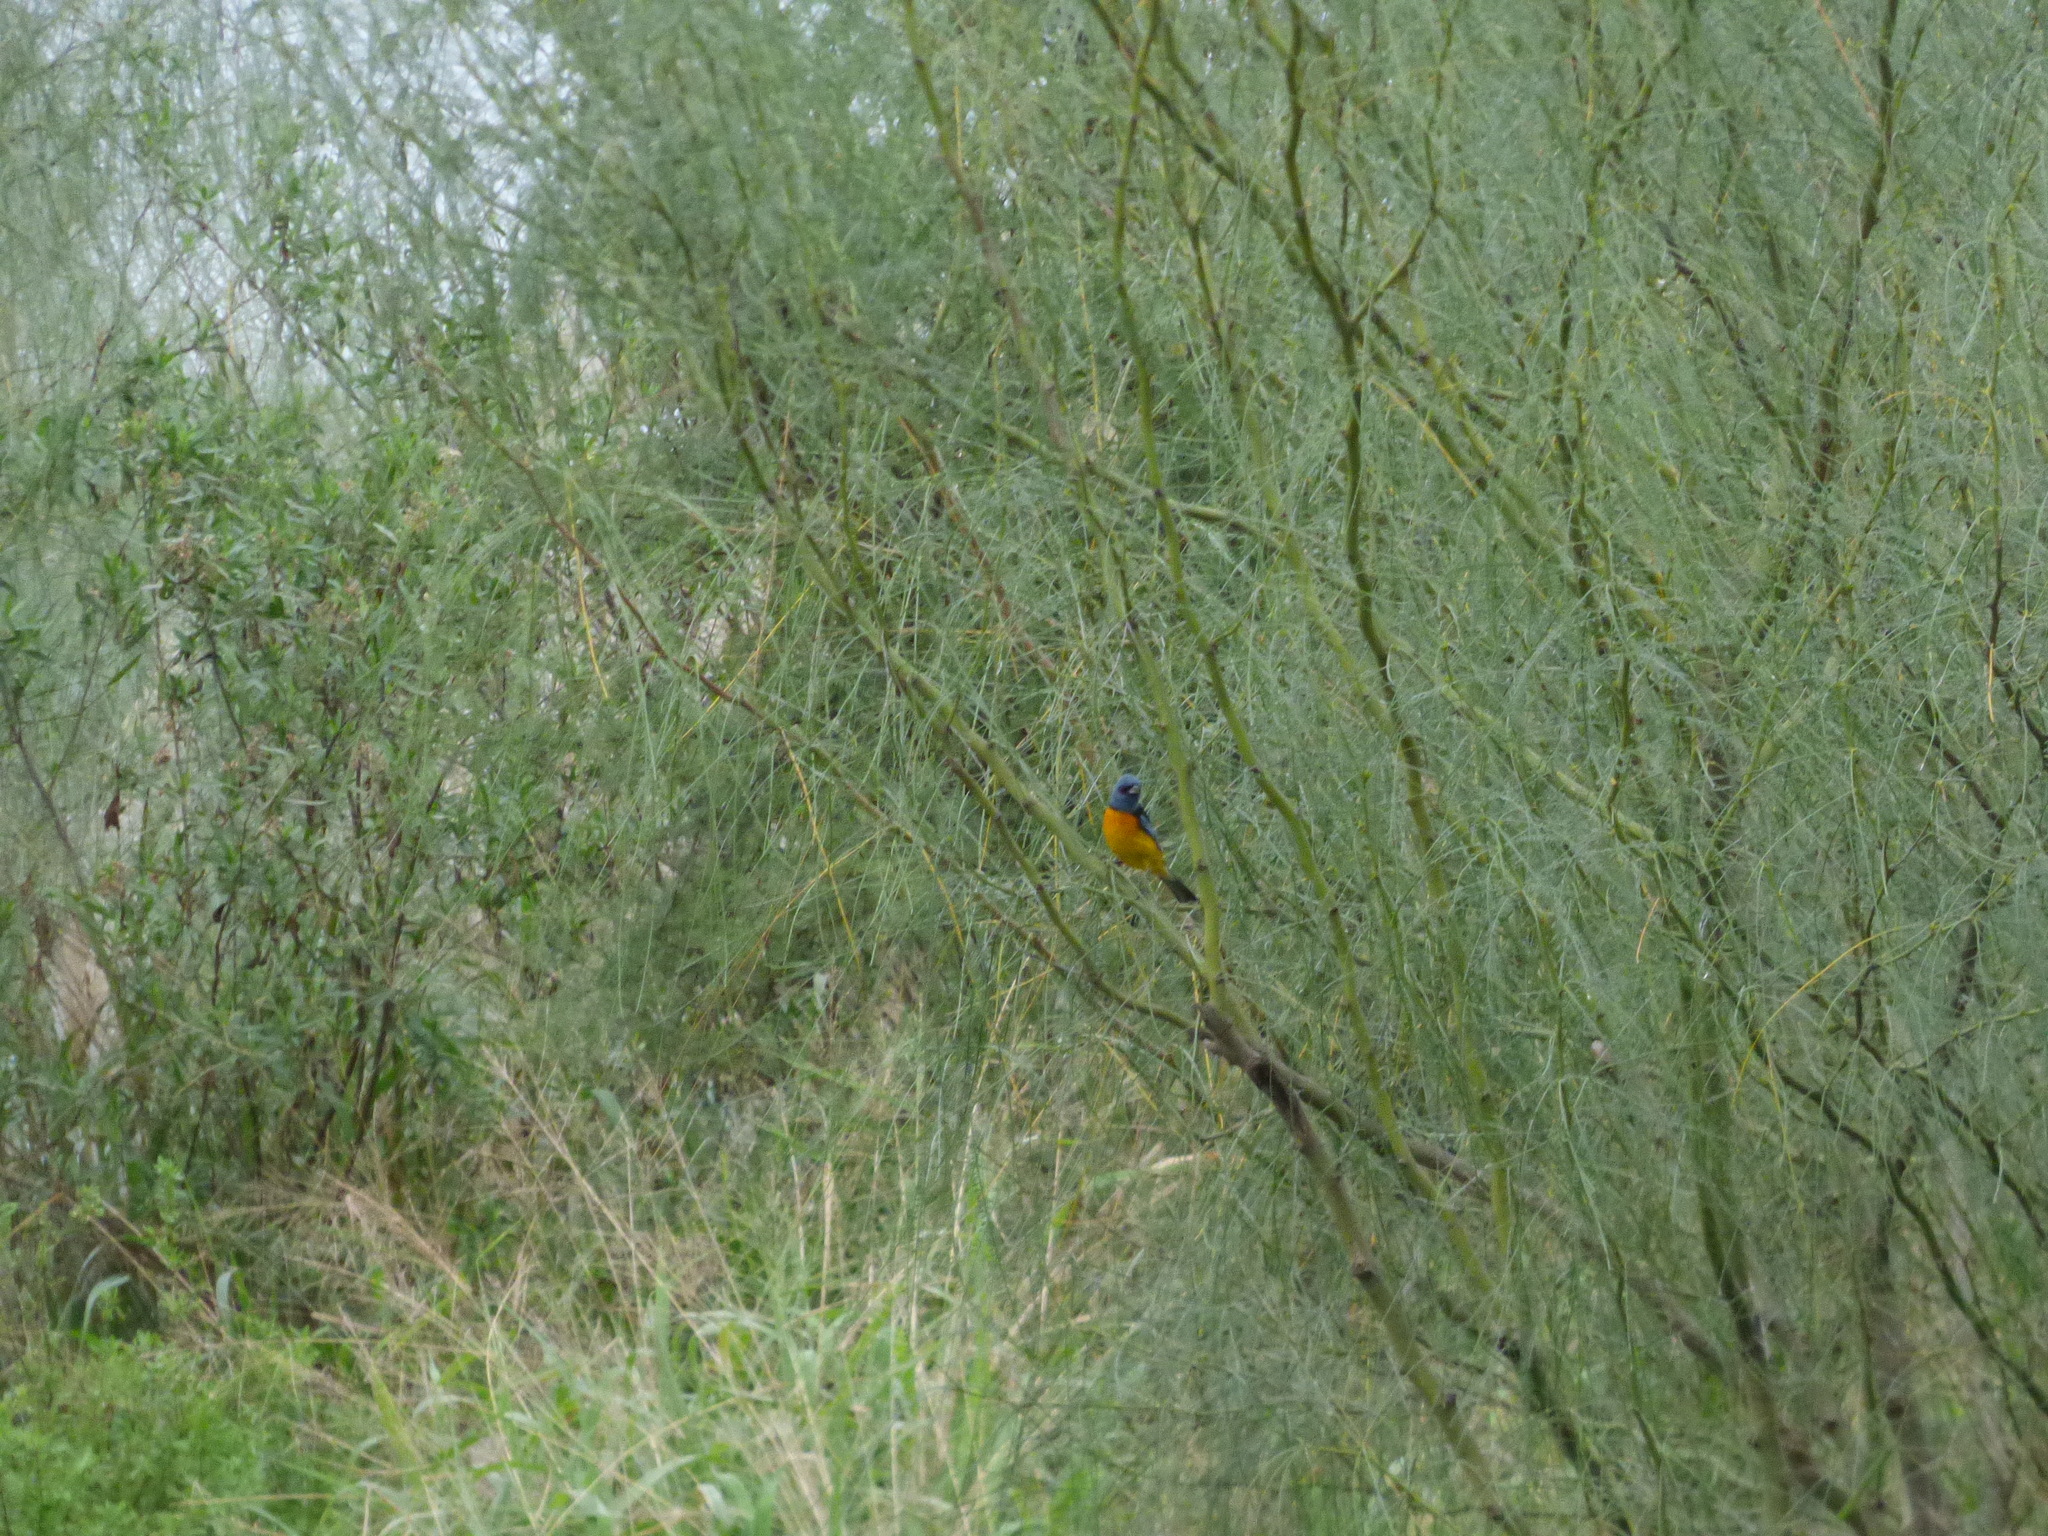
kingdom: Animalia
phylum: Chordata
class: Aves
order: Passeriformes
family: Thraupidae
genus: Rauenia
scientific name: Rauenia bonariensis
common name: Blue-and-yellow tanager
